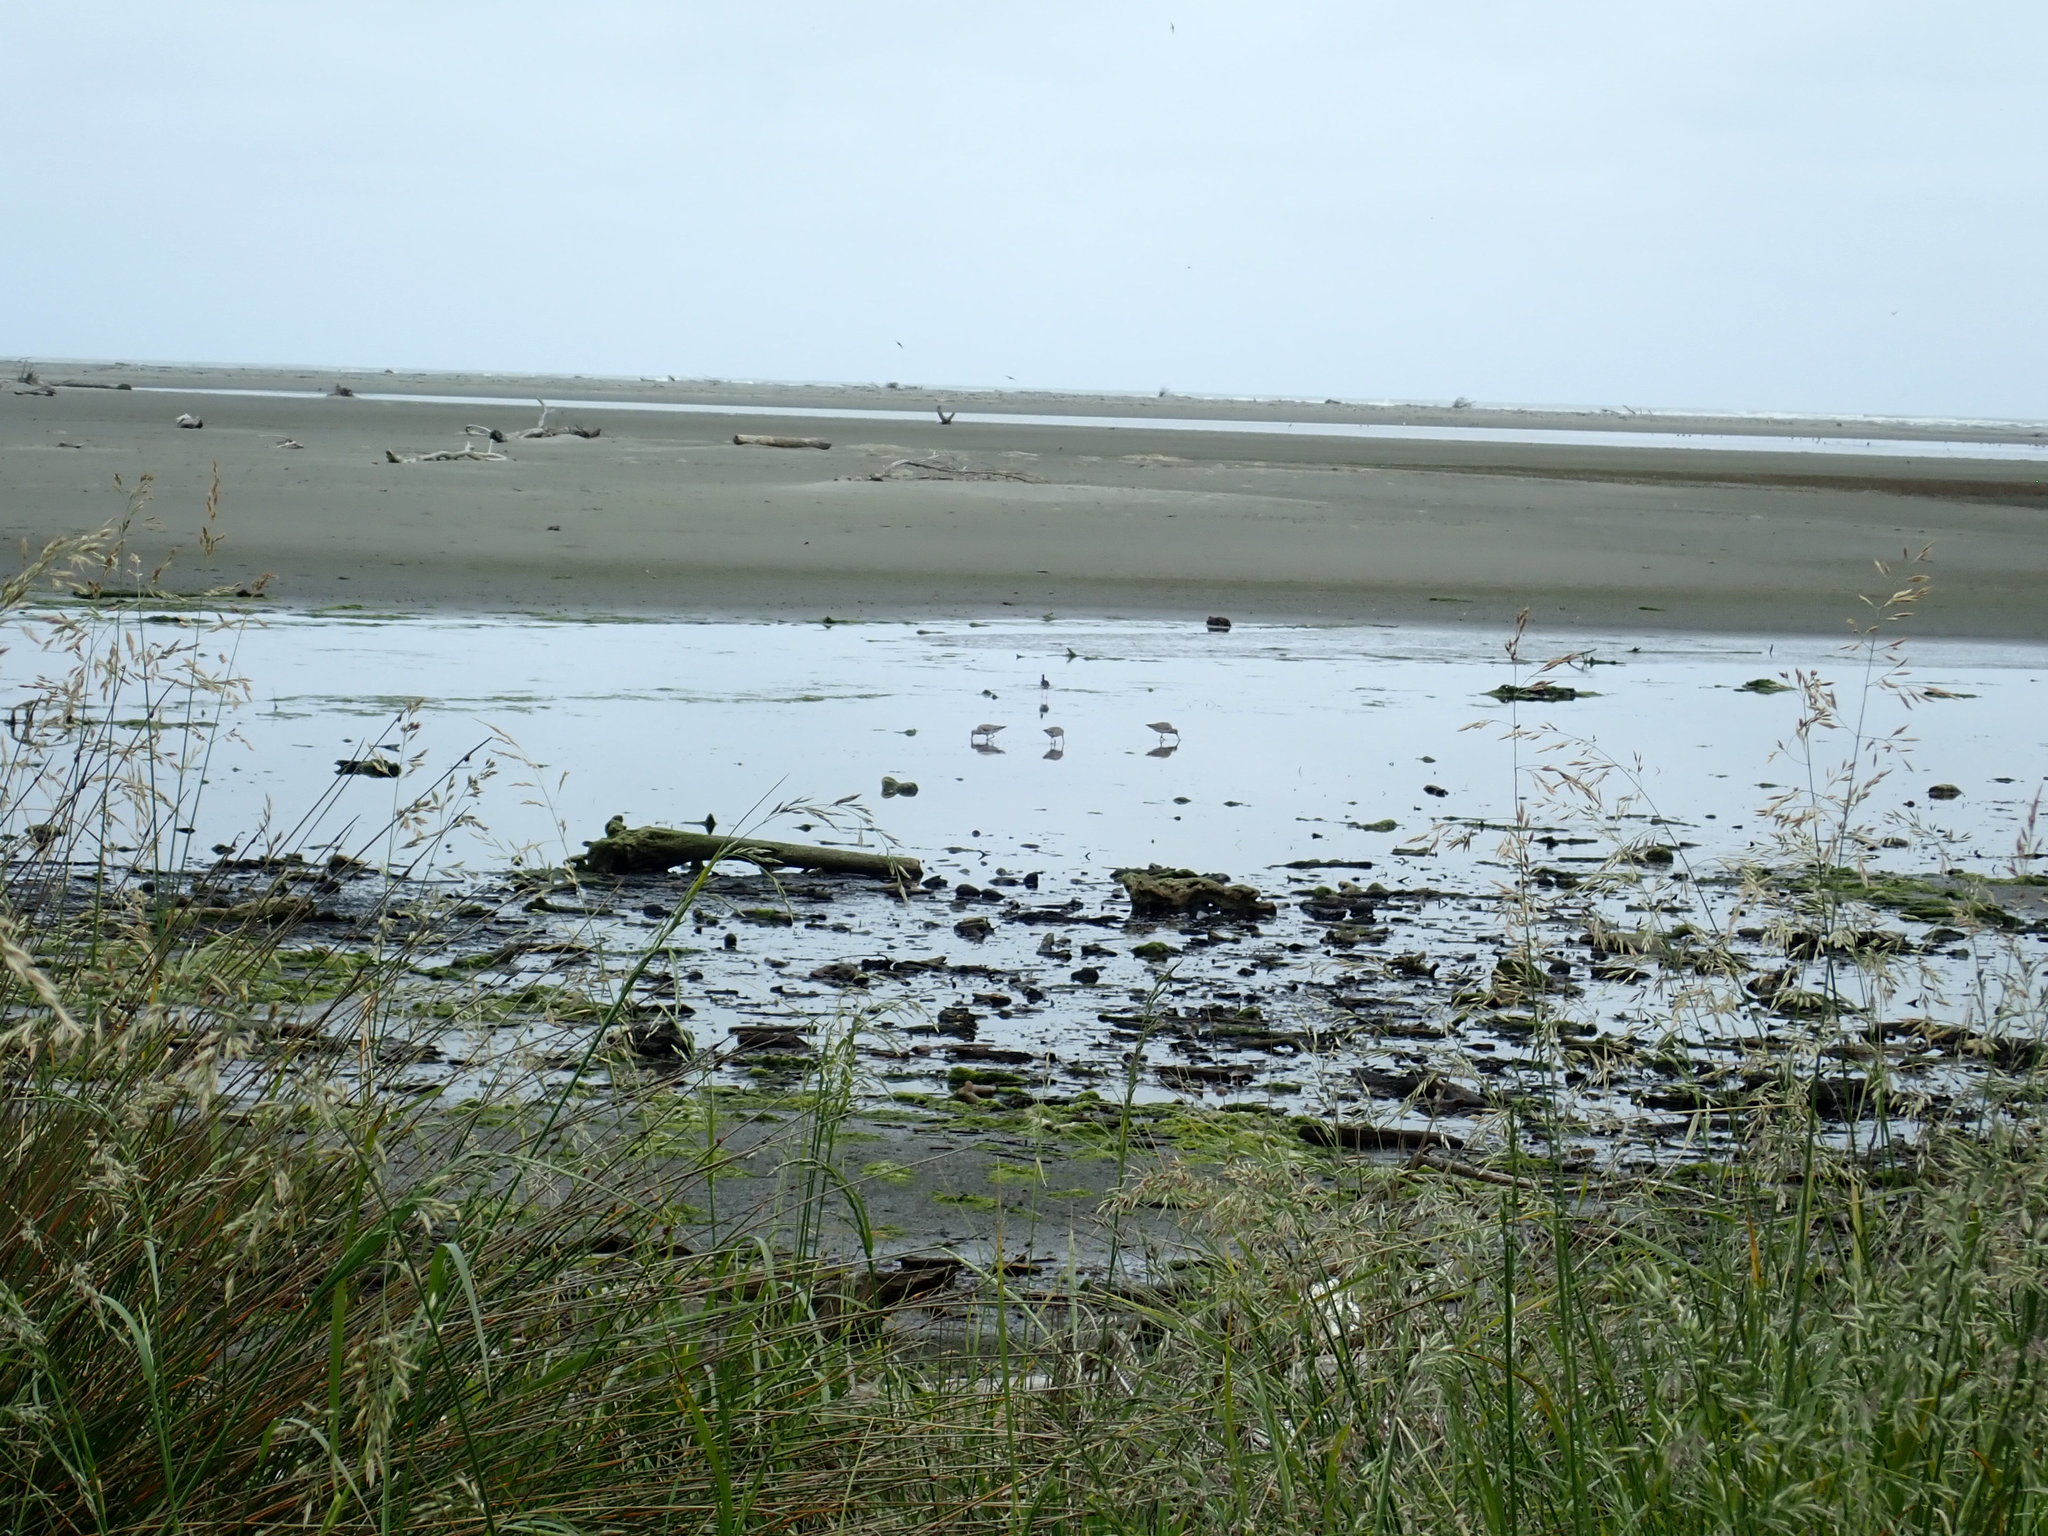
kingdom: Animalia
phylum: Chordata
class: Aves
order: Charadriiformes
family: Scolopacidae
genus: Limosa
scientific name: Limosa lapponica
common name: Bar-tailed godwit
